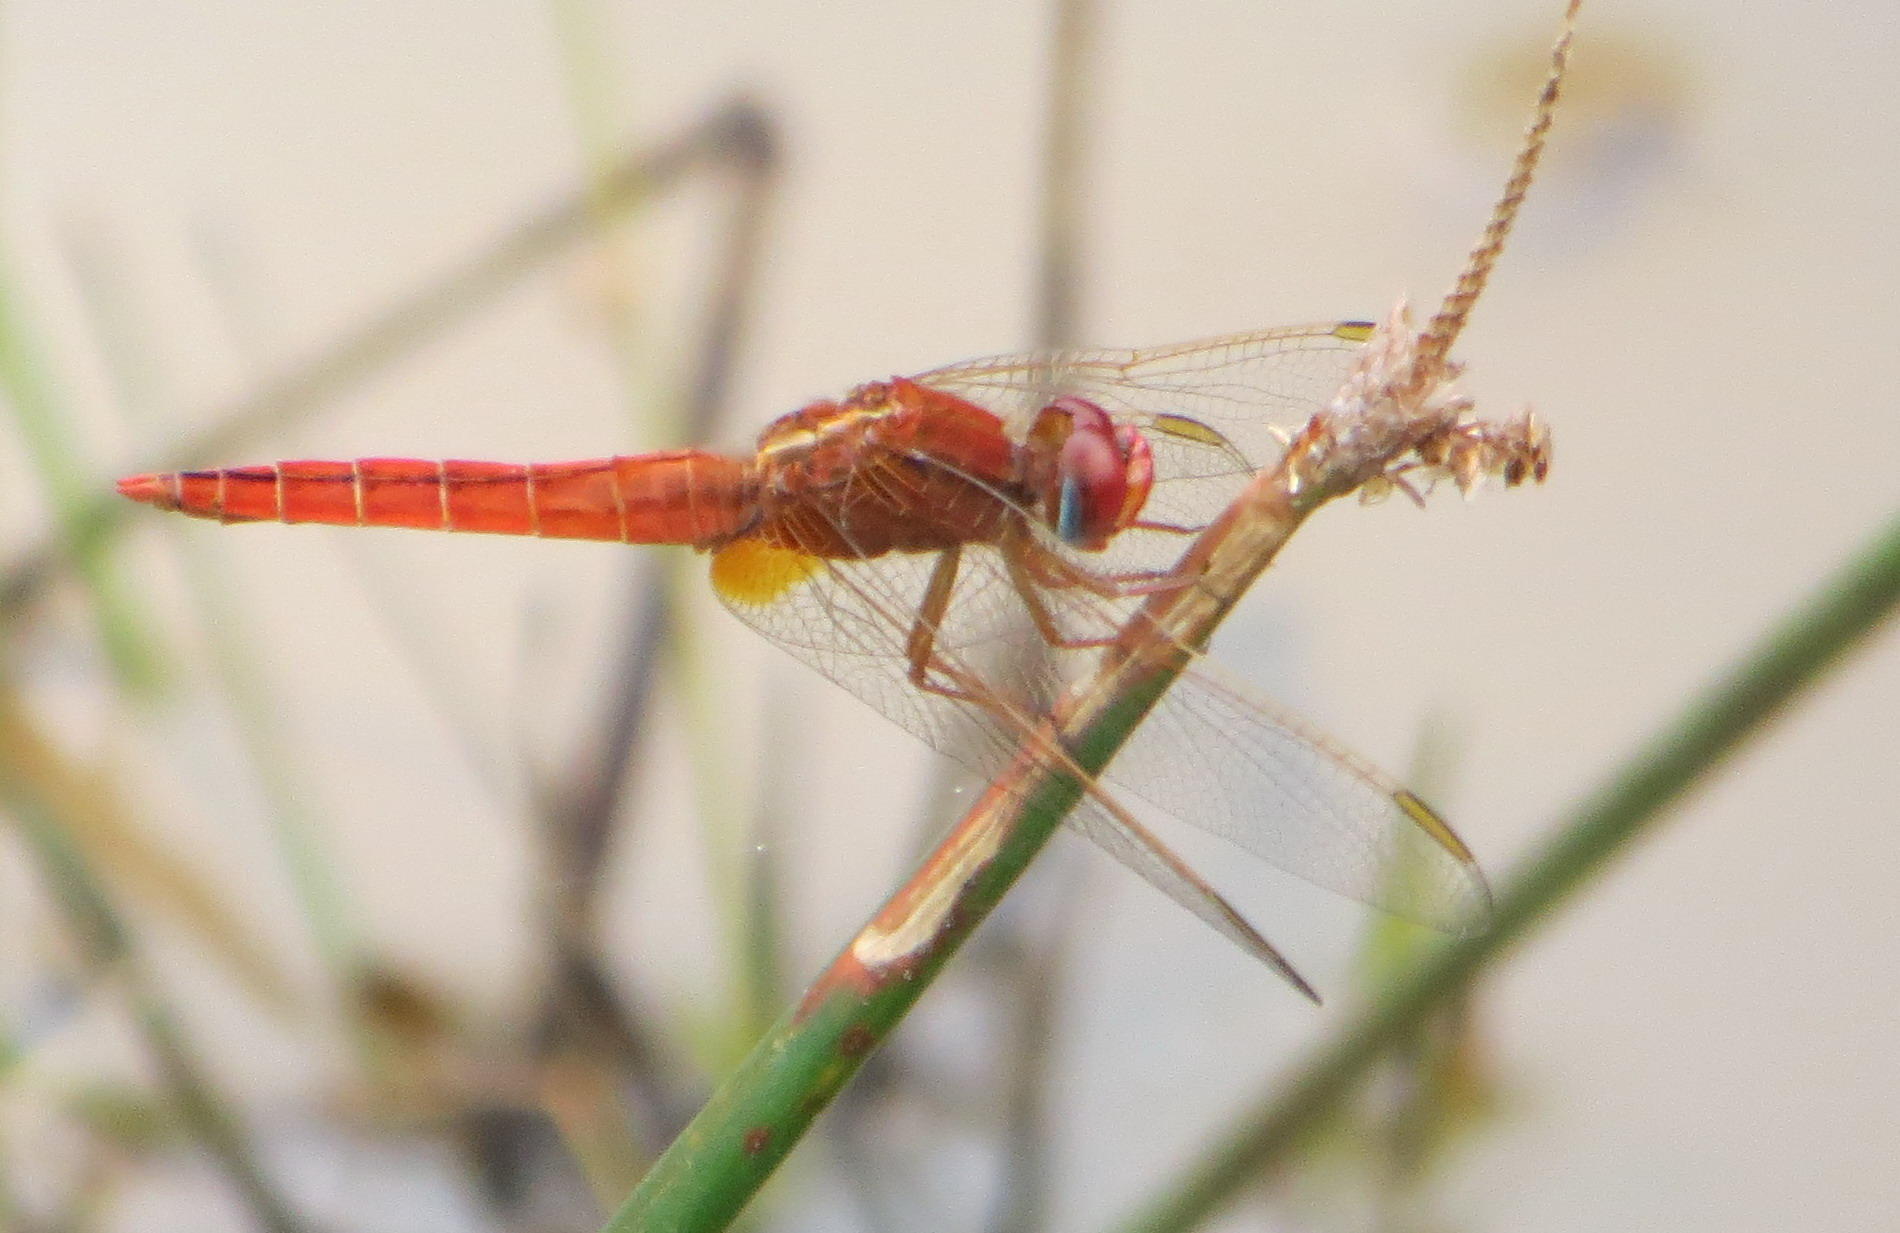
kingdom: Animalia
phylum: Arthropoda
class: Insecta
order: Odonata
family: Libellulidae
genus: Crocothemis
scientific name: Crocothemis erythraea
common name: Scarlet dragonfly
